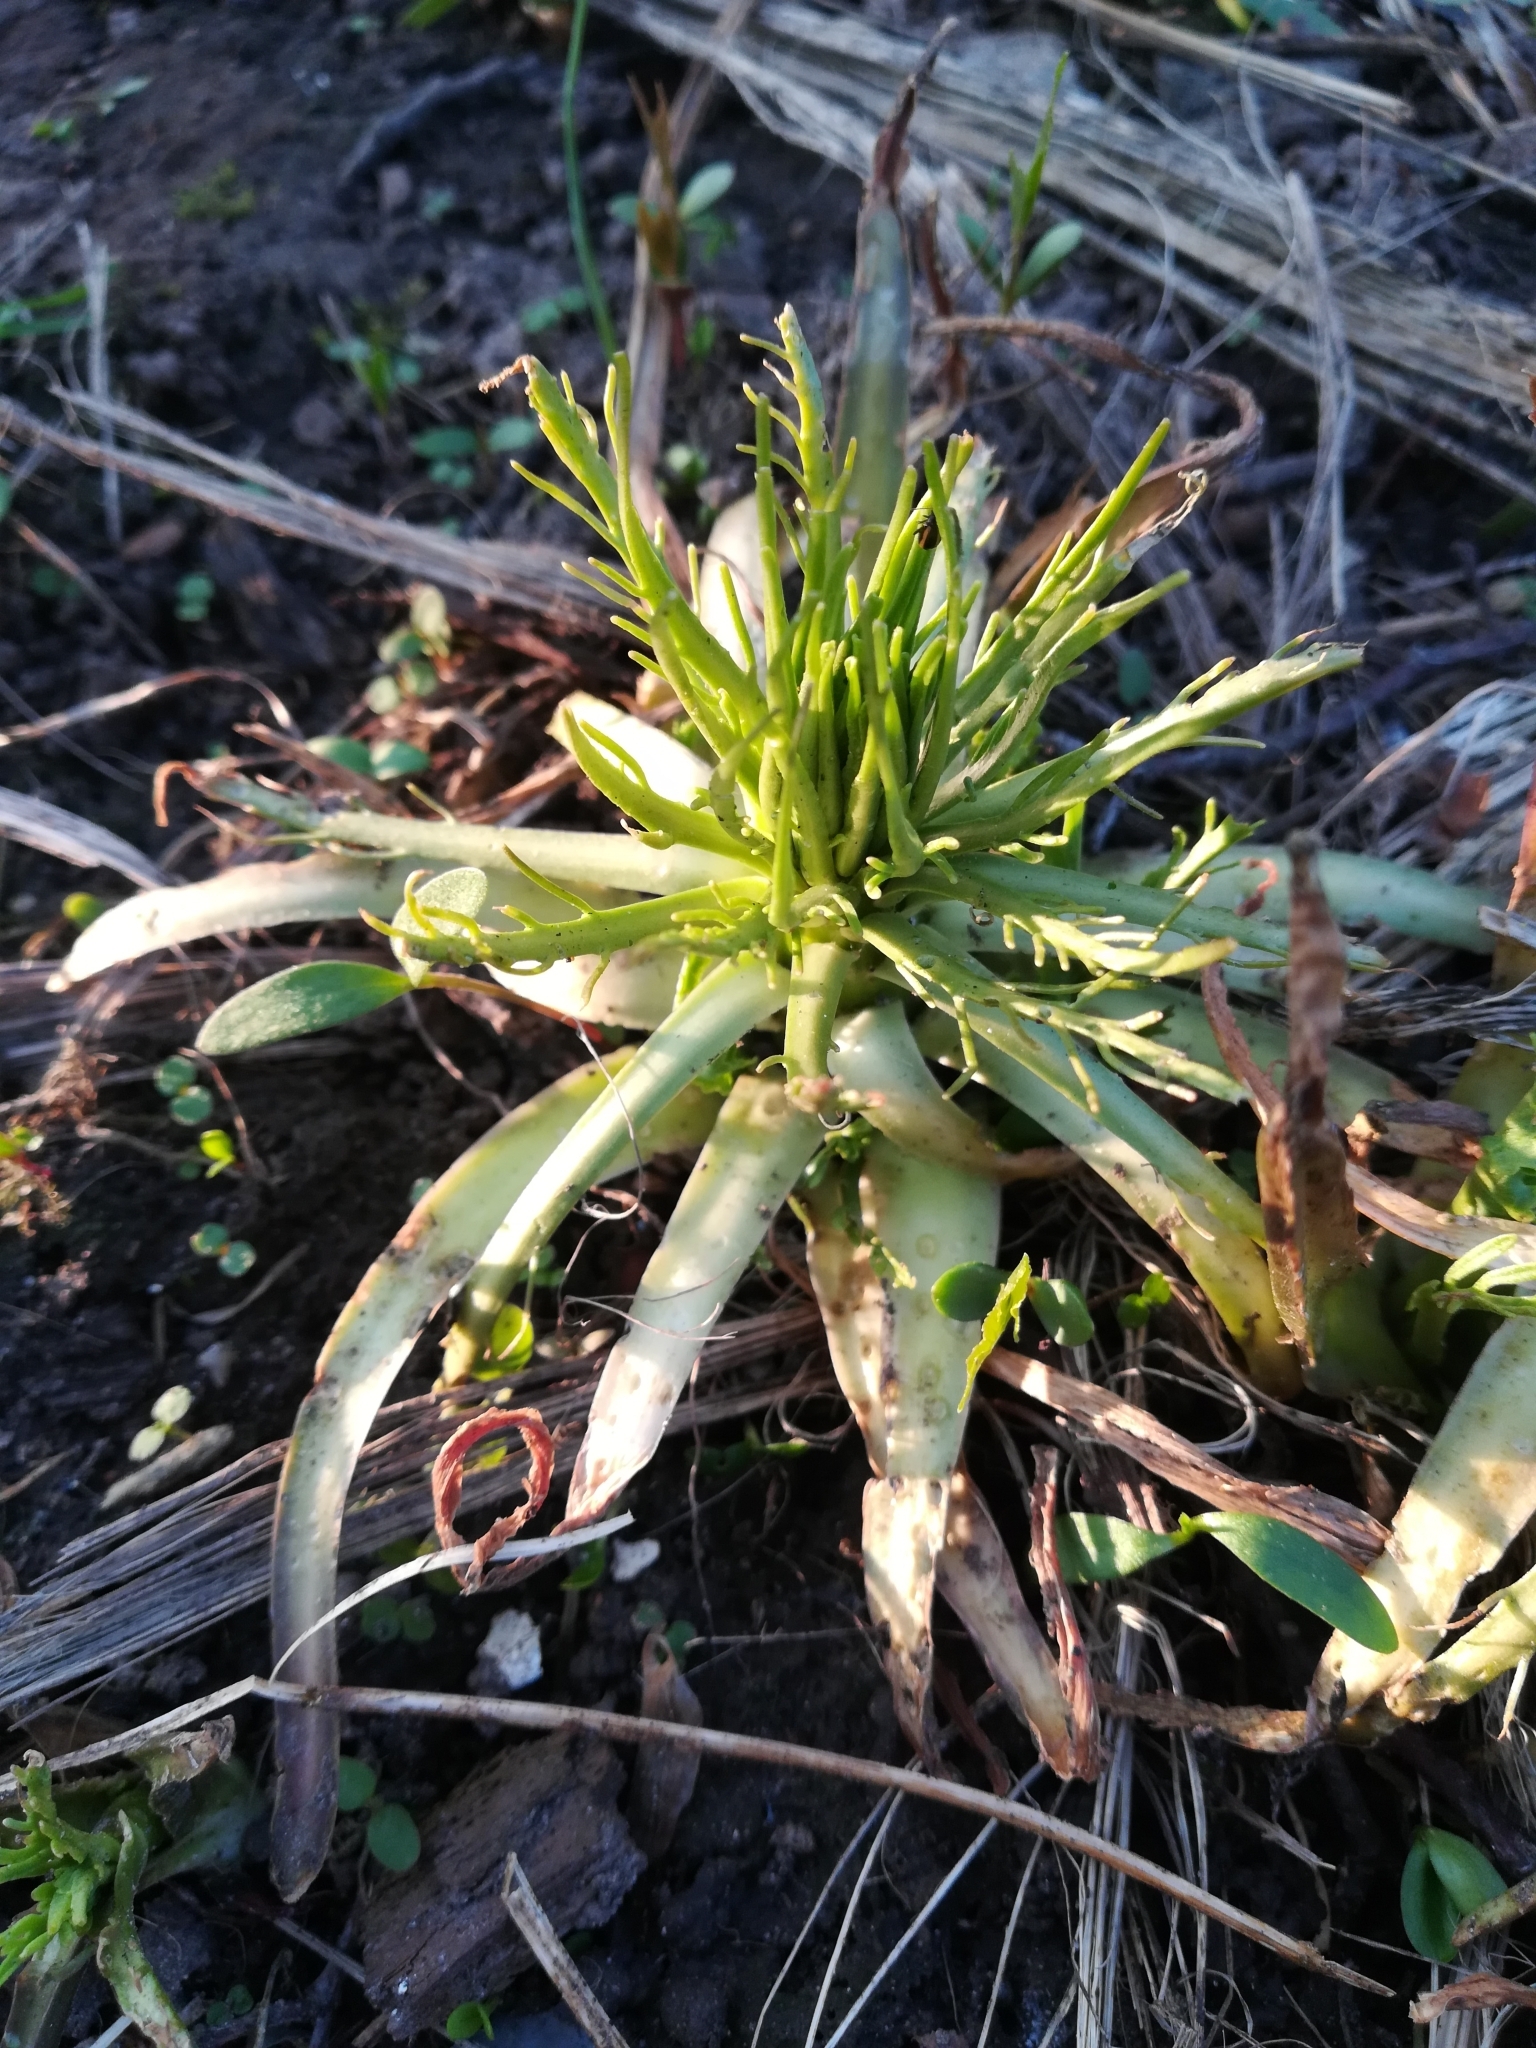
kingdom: Plantae
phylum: Tracheophyta
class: Magnoliopsida
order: Brassicales
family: Brassicaceae
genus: Rorippa
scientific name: Rorippa amphibia
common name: Great yellow-cress
